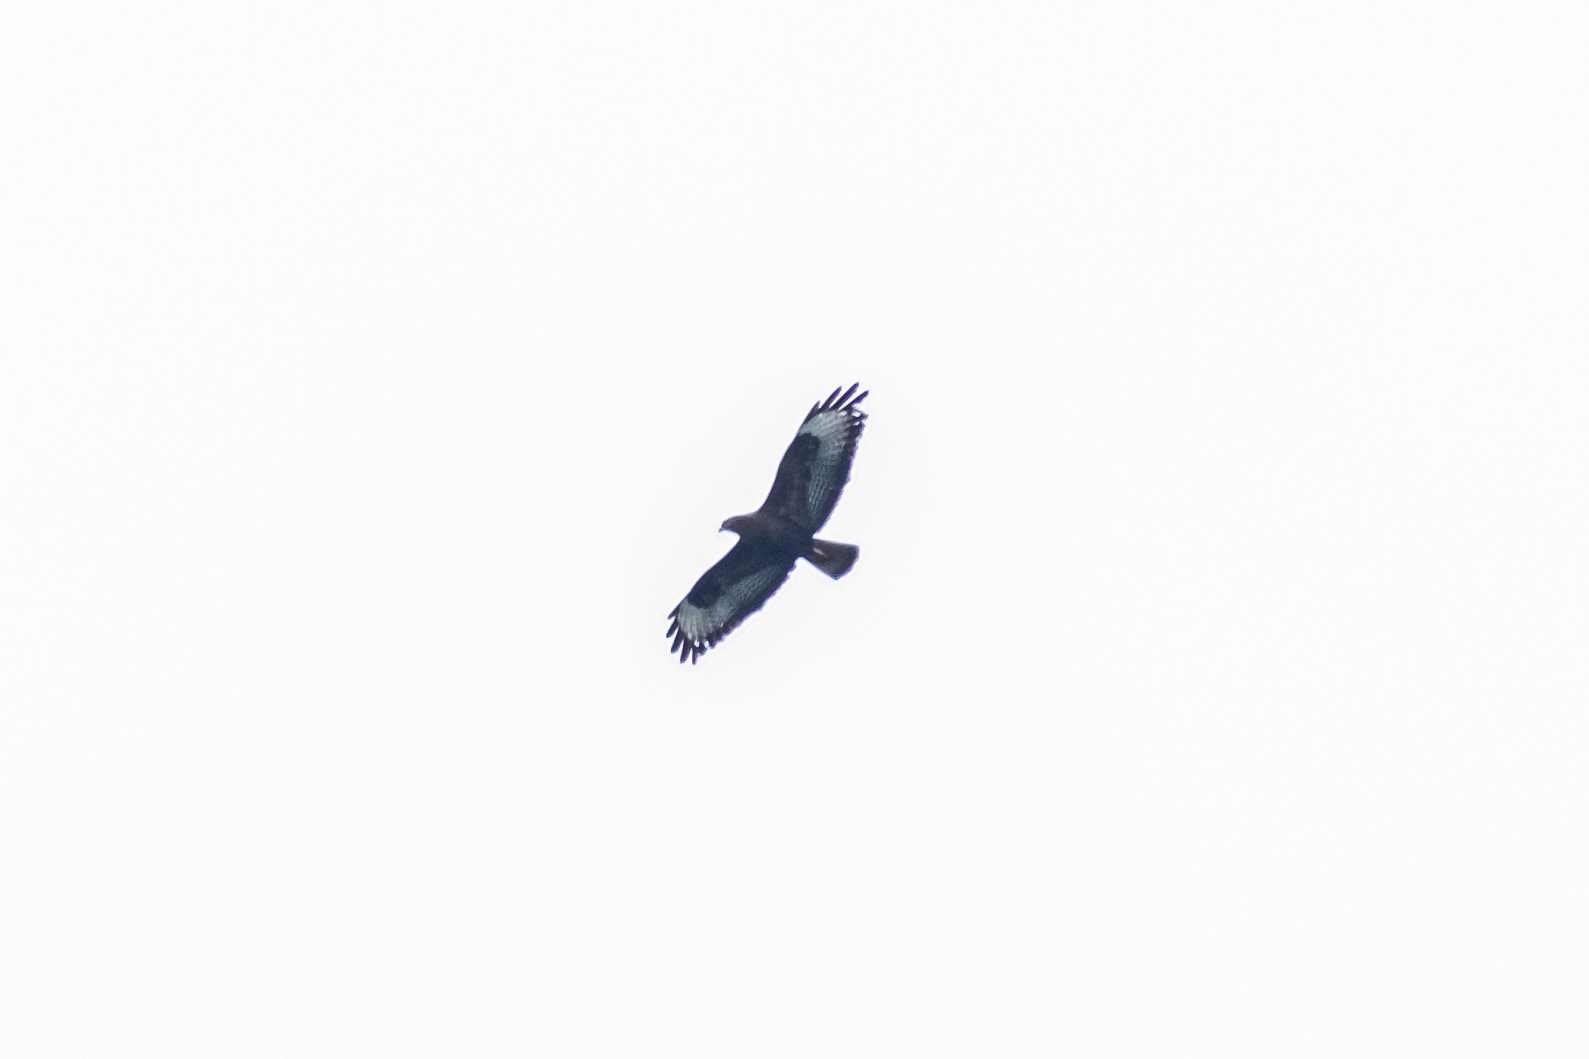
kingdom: Animalia
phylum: Chordata
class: Aves
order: Accipitriformes
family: Accipitridae
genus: Buteo
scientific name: Buteo buteo
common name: Common buzzard
